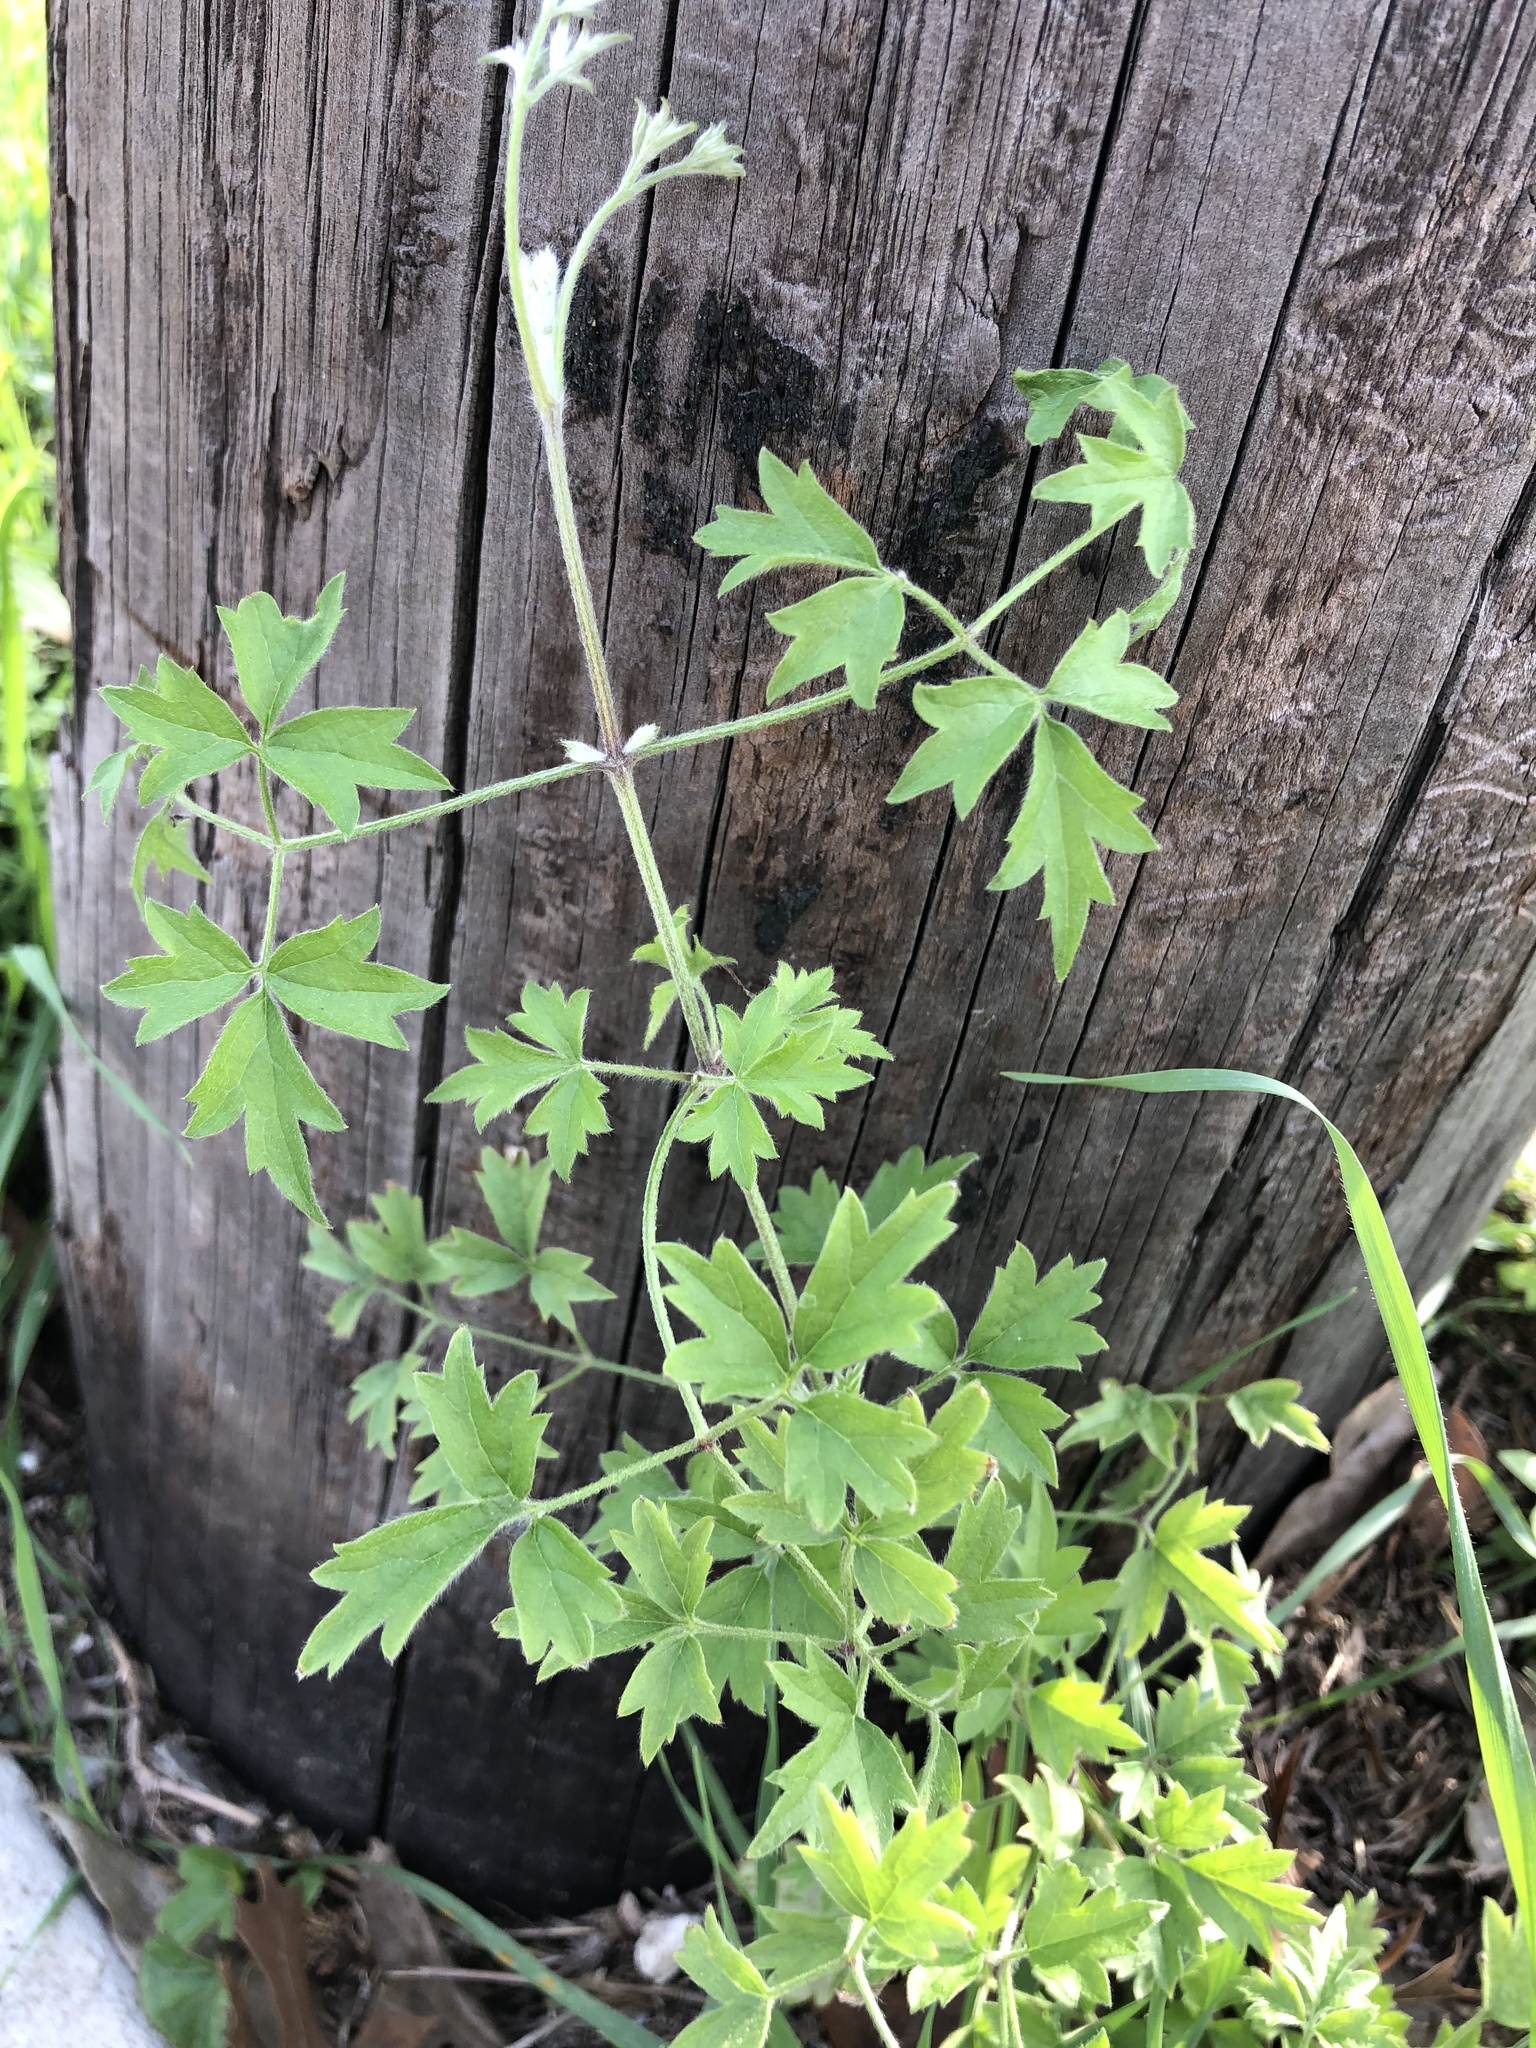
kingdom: Plantae
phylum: Tracheophyta
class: Magnoliopsida
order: Ranunculales
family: Ranunculaceae
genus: Clematis
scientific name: Clematis drummondii
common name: Texas virgin's bower
